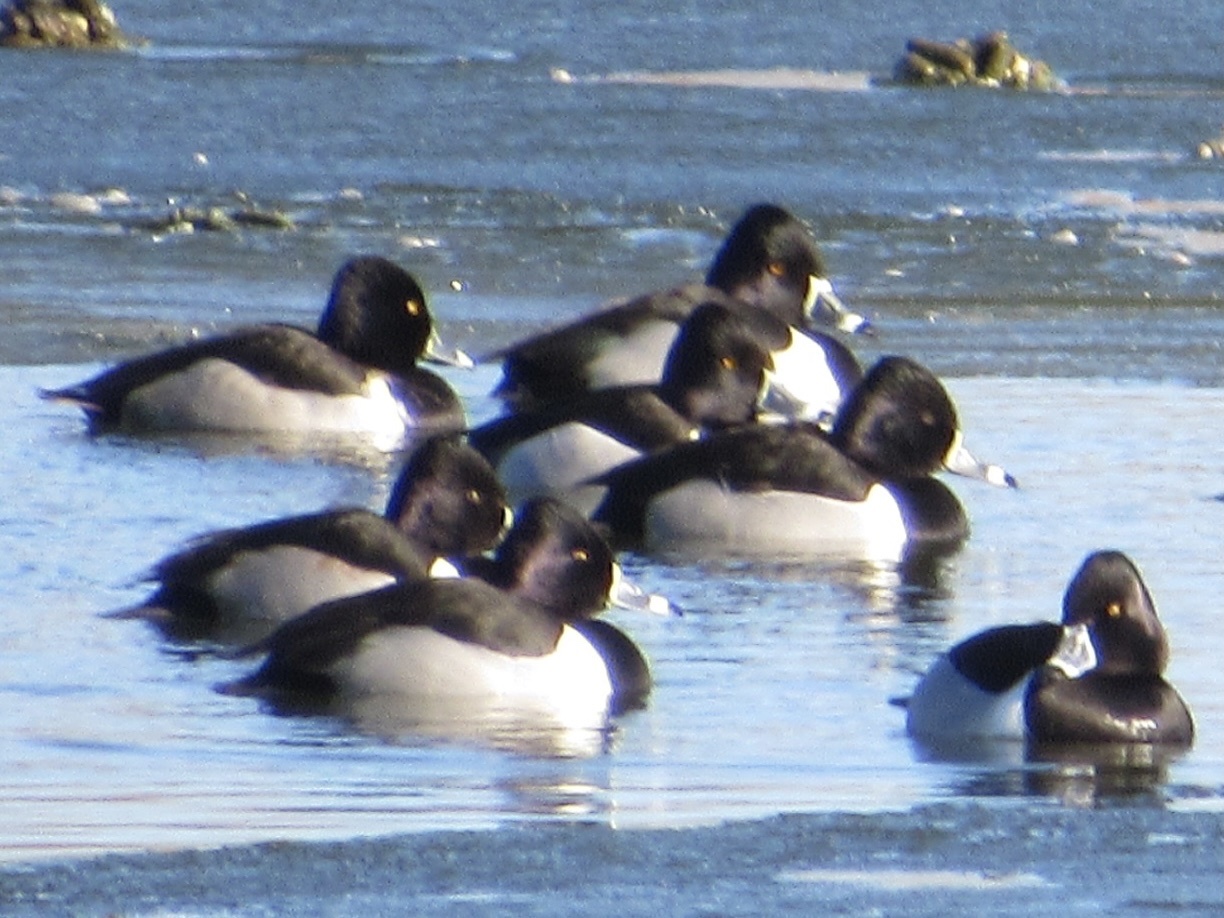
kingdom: Animalia
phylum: Chordata
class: Aves
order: Anseriformes
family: Anatidae
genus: Aythya
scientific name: Aythya collaris
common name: Ring-necked duck
